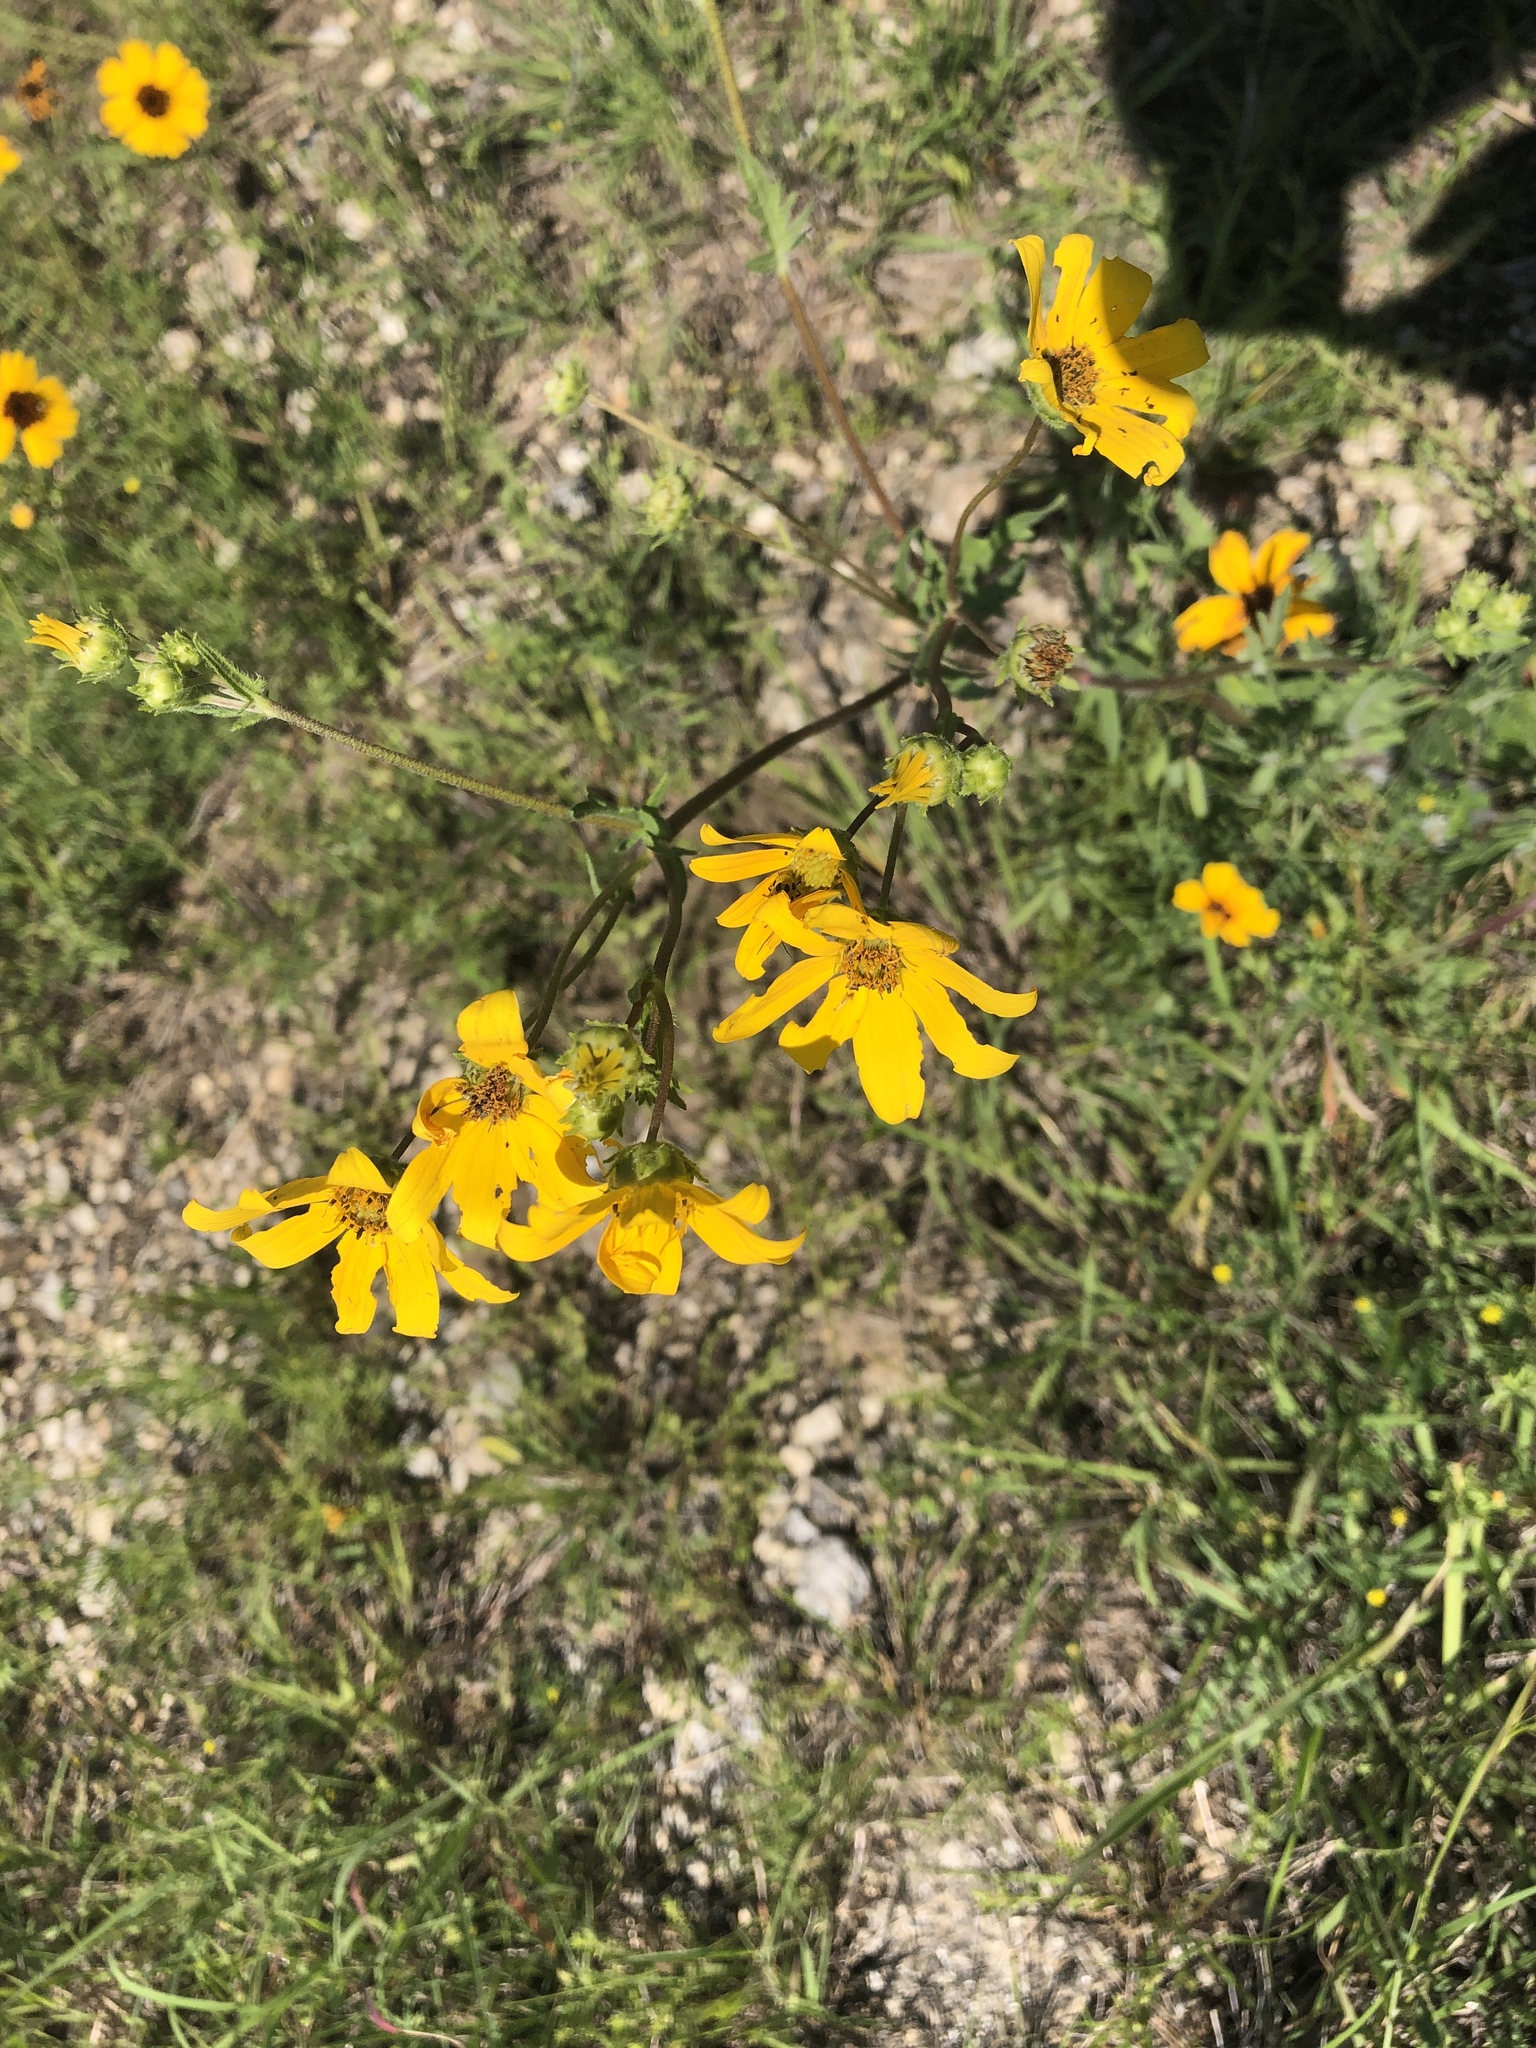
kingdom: Plantae
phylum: Tracheophyta
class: Magnoliopsida
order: Asterales
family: Asteraceae
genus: Engelmannia
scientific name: Engelmannia peristenia
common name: Engelmann's daisy
